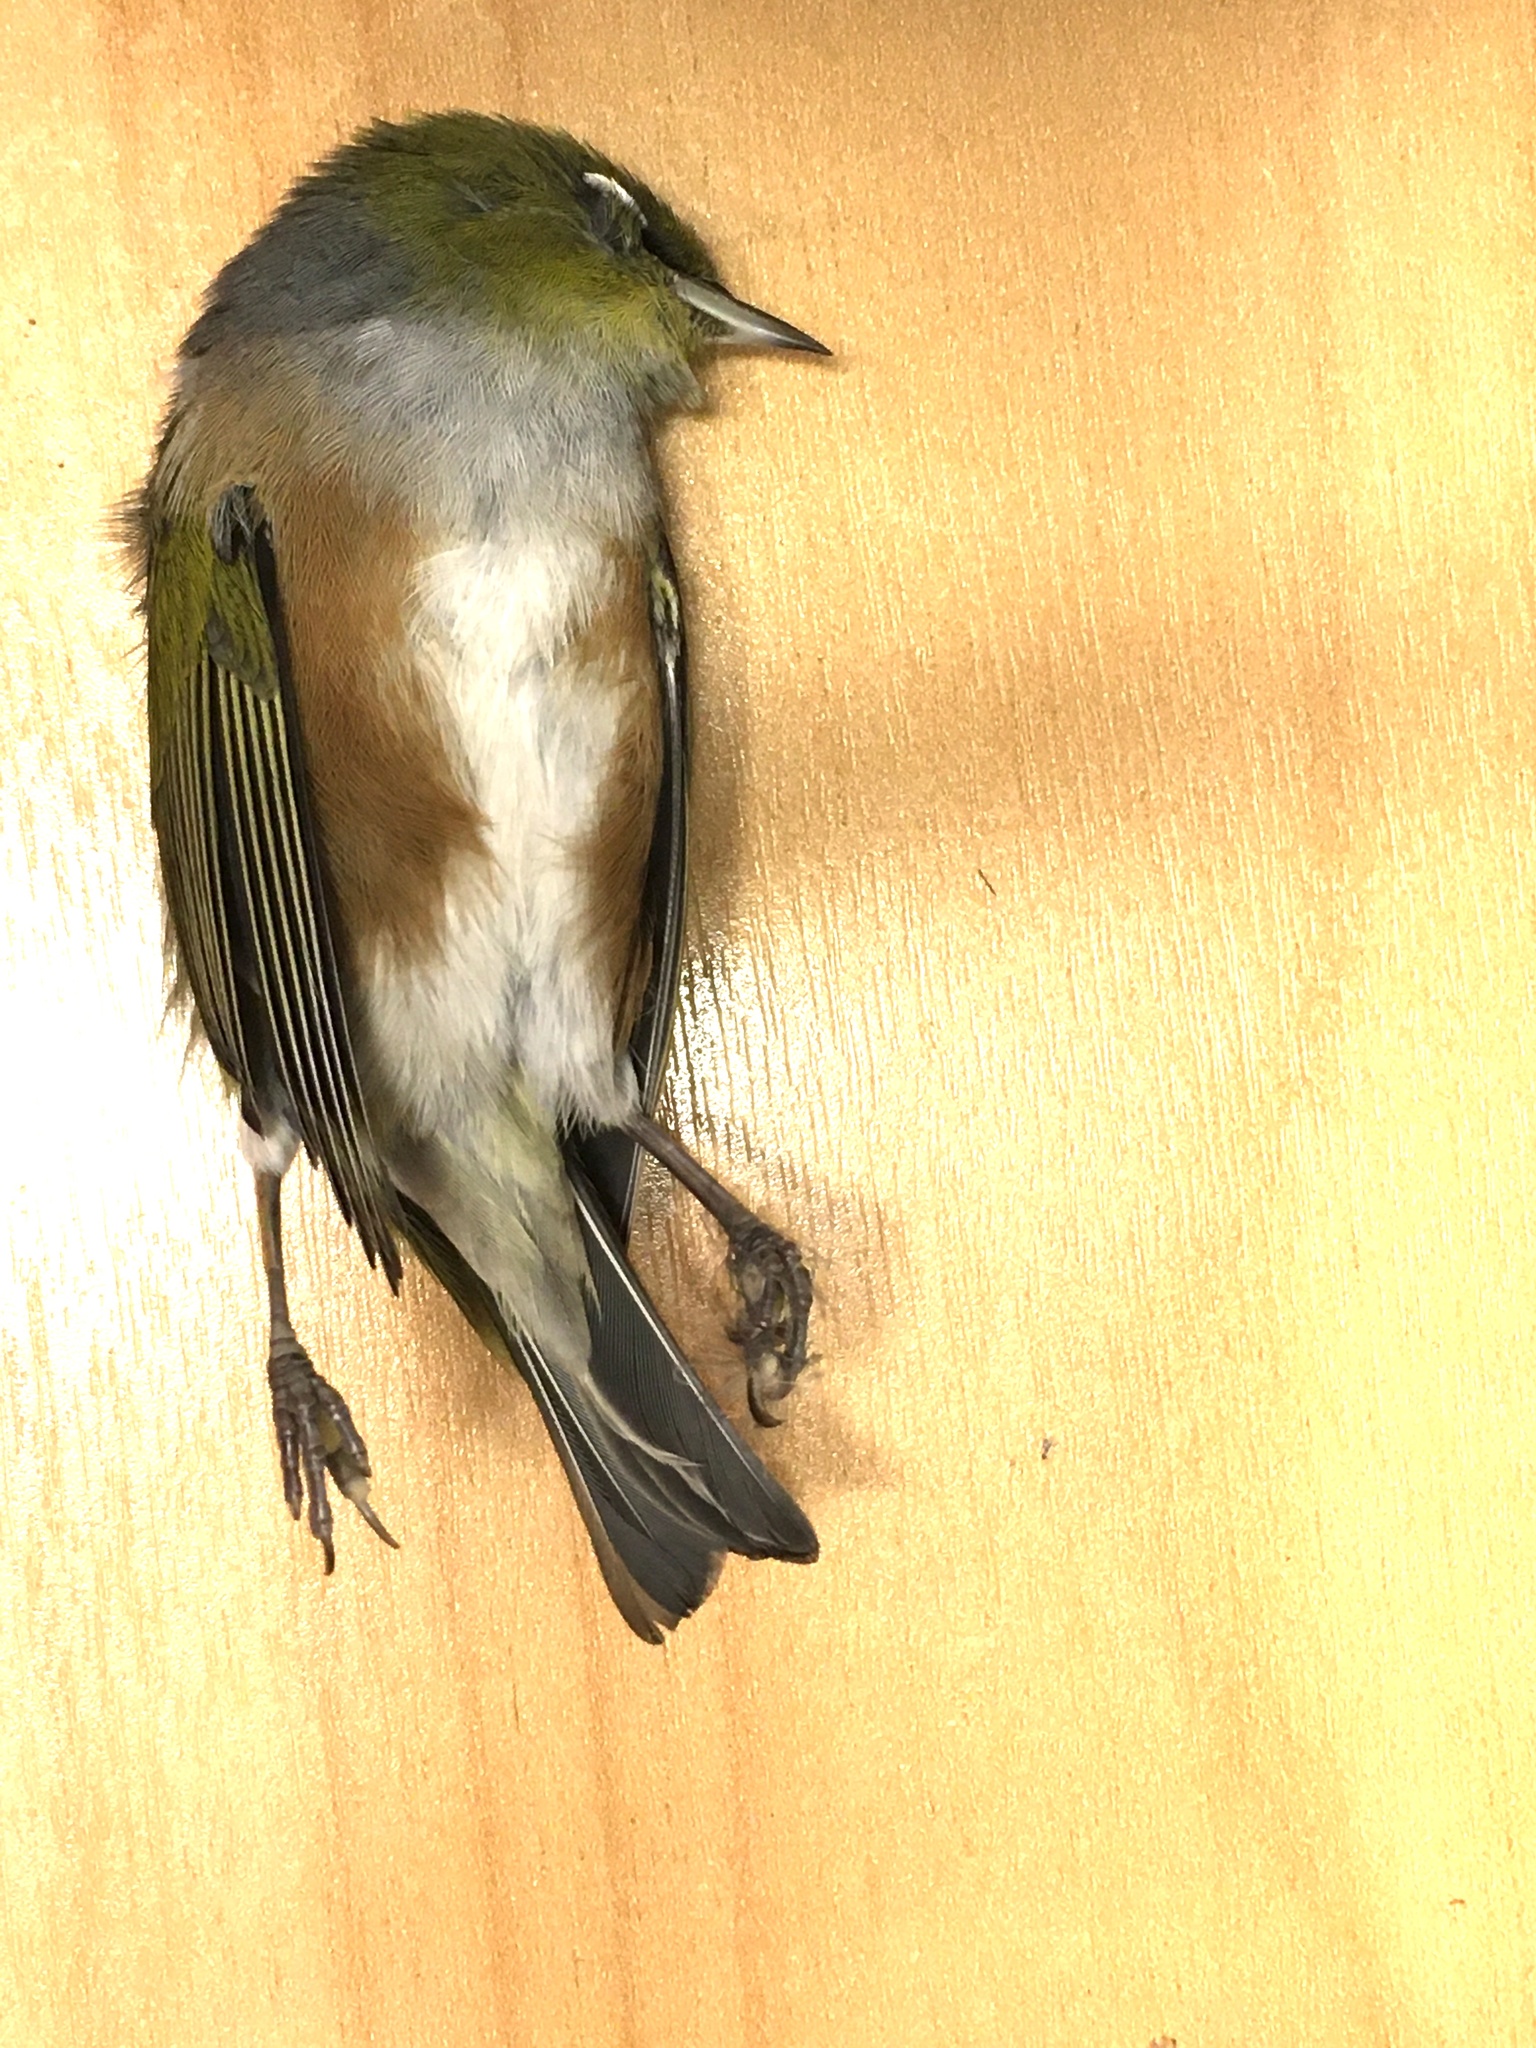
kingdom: Animalia
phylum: Chordata
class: Aves
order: Passeriformes
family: Zosteropidae
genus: Zosterops
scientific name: Zosterops lateralis
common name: Silvereye
